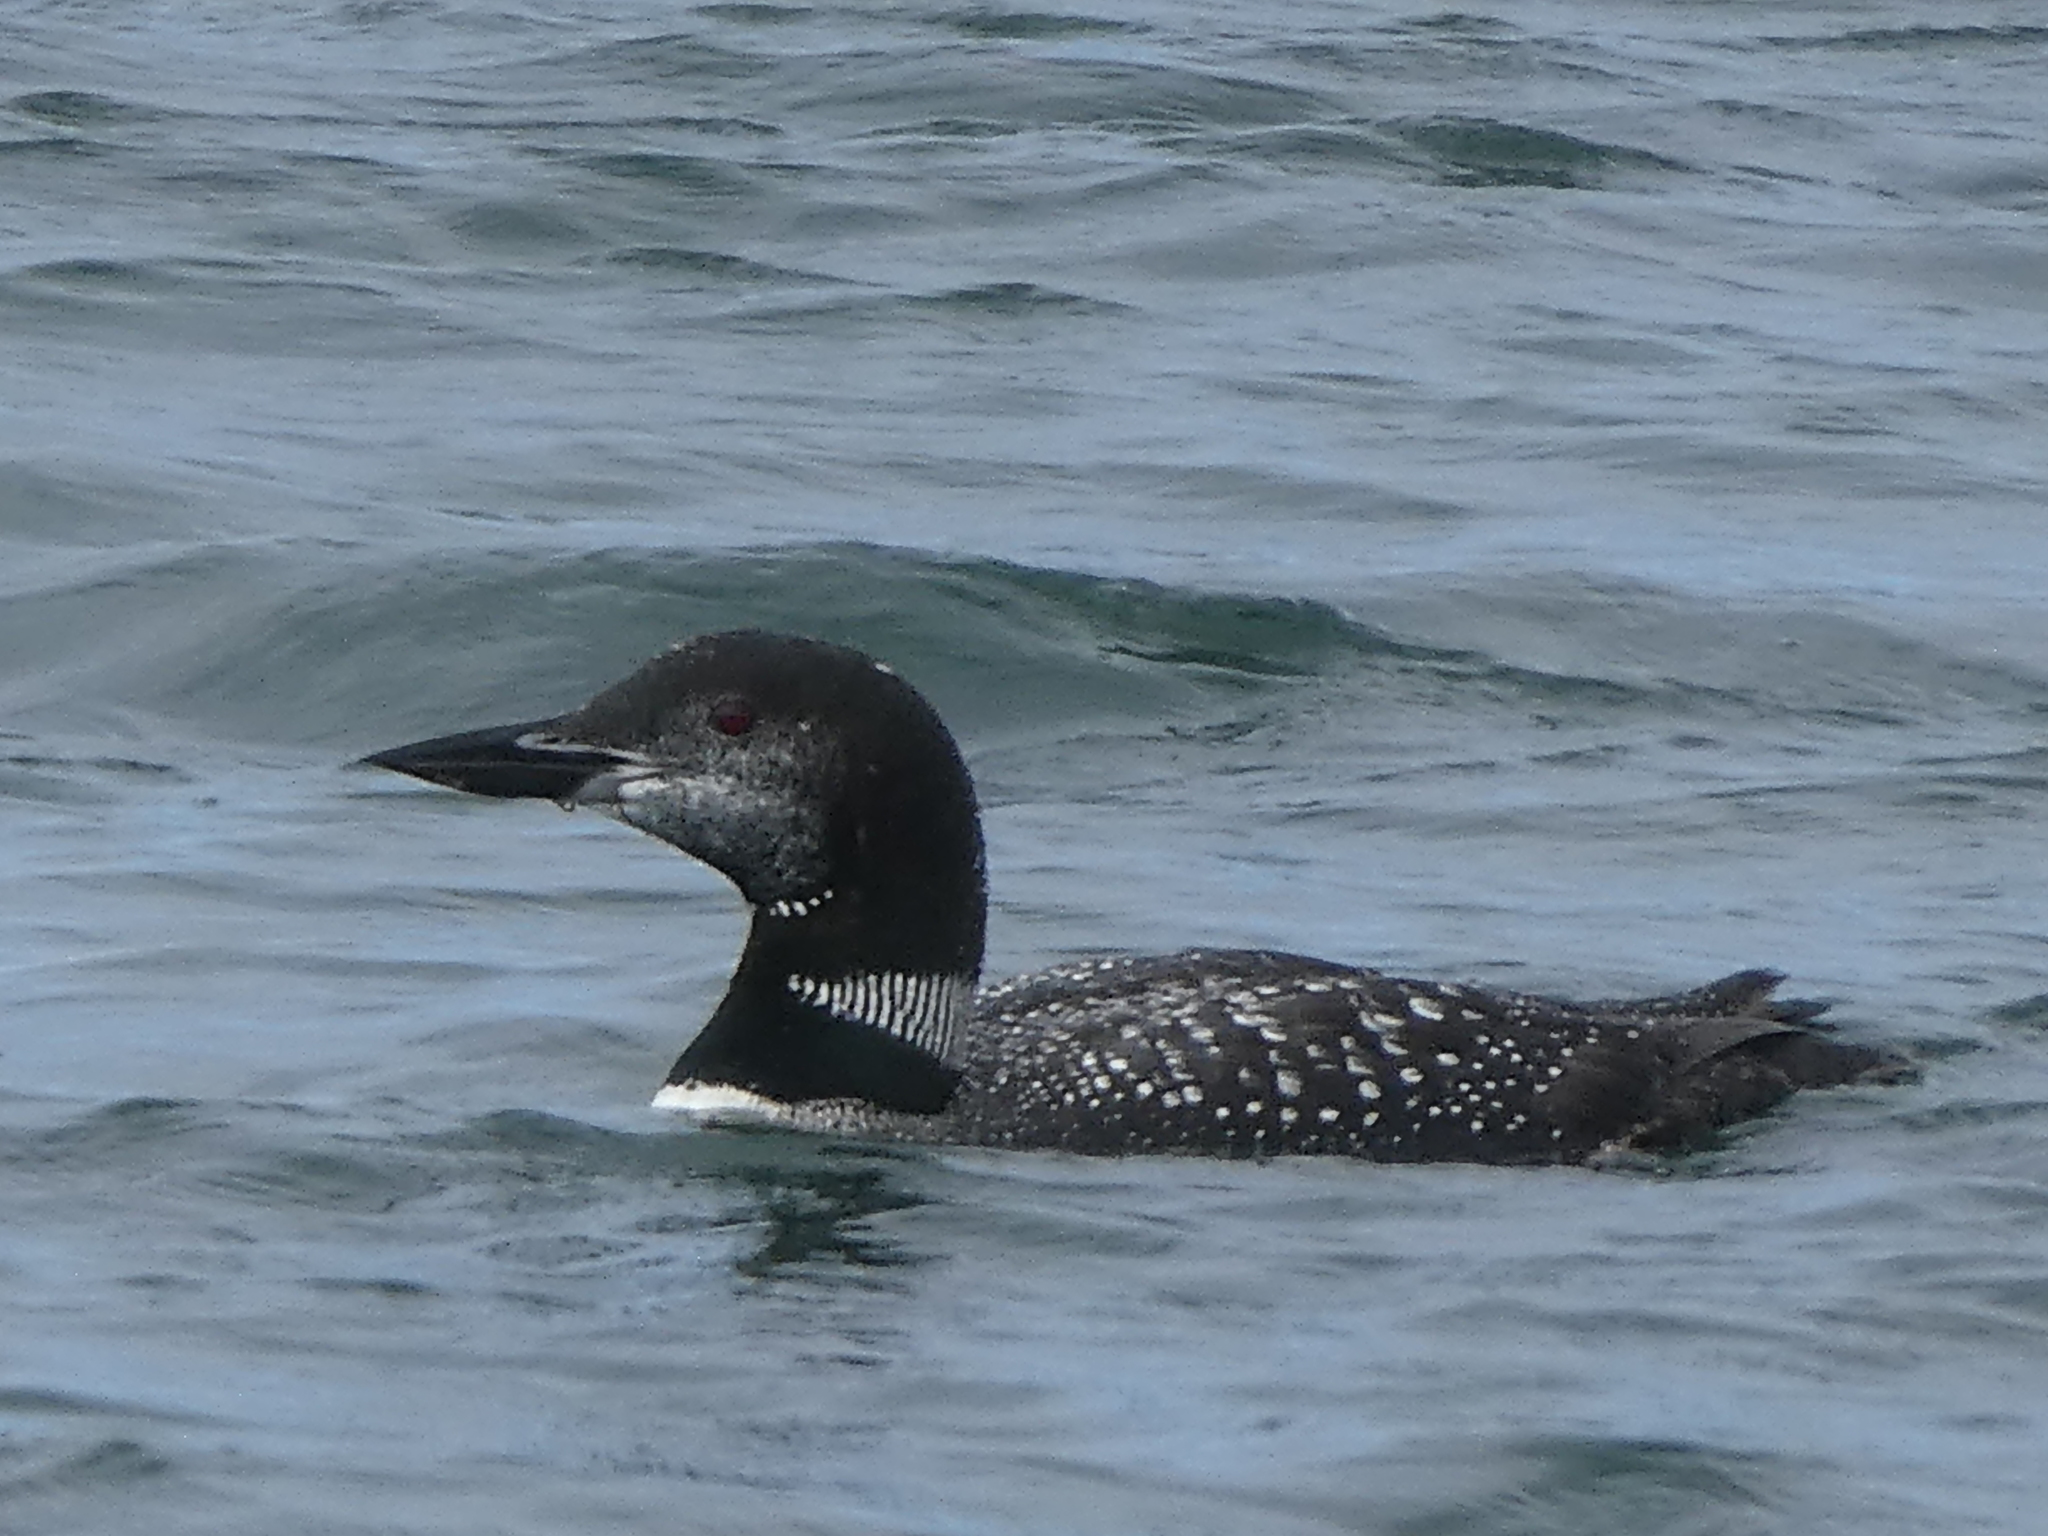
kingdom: Animalia
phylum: Chordata
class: Aves
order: Gaviiformes
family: Gaviidae
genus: Gavia
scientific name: Gavia immer
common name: Common loon
